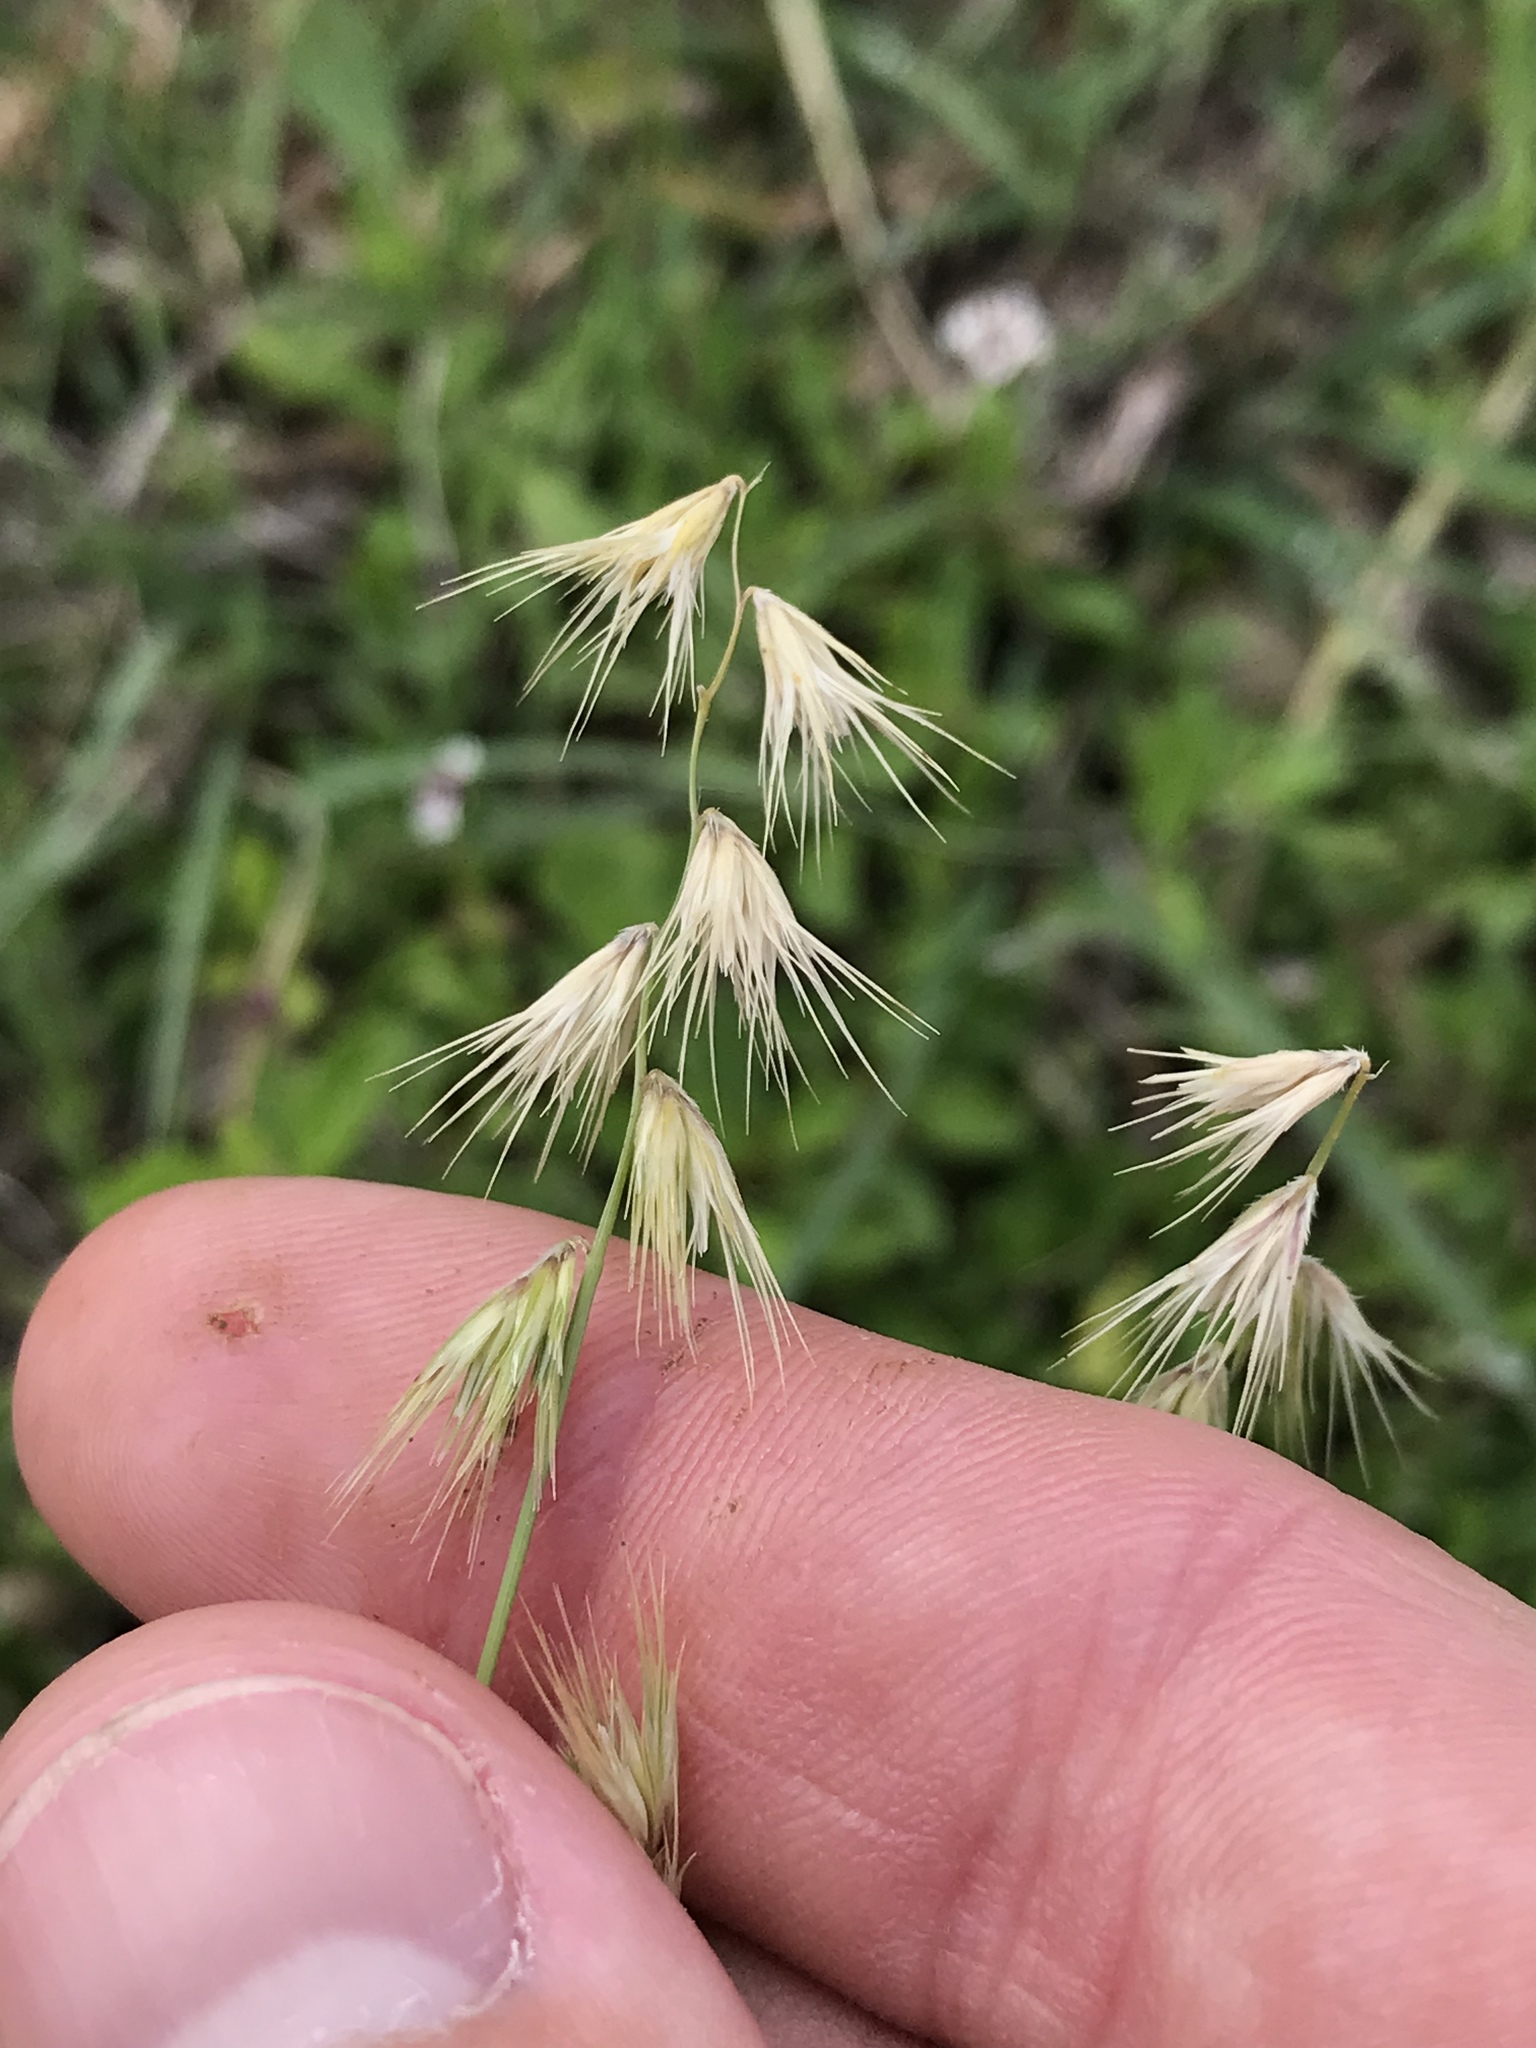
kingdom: Plantae
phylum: Tracheophyta
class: Liliopsida
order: Poales
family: Poaceae
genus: Bouteloua
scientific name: Bouteloua rigidiseta
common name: Texas grama
